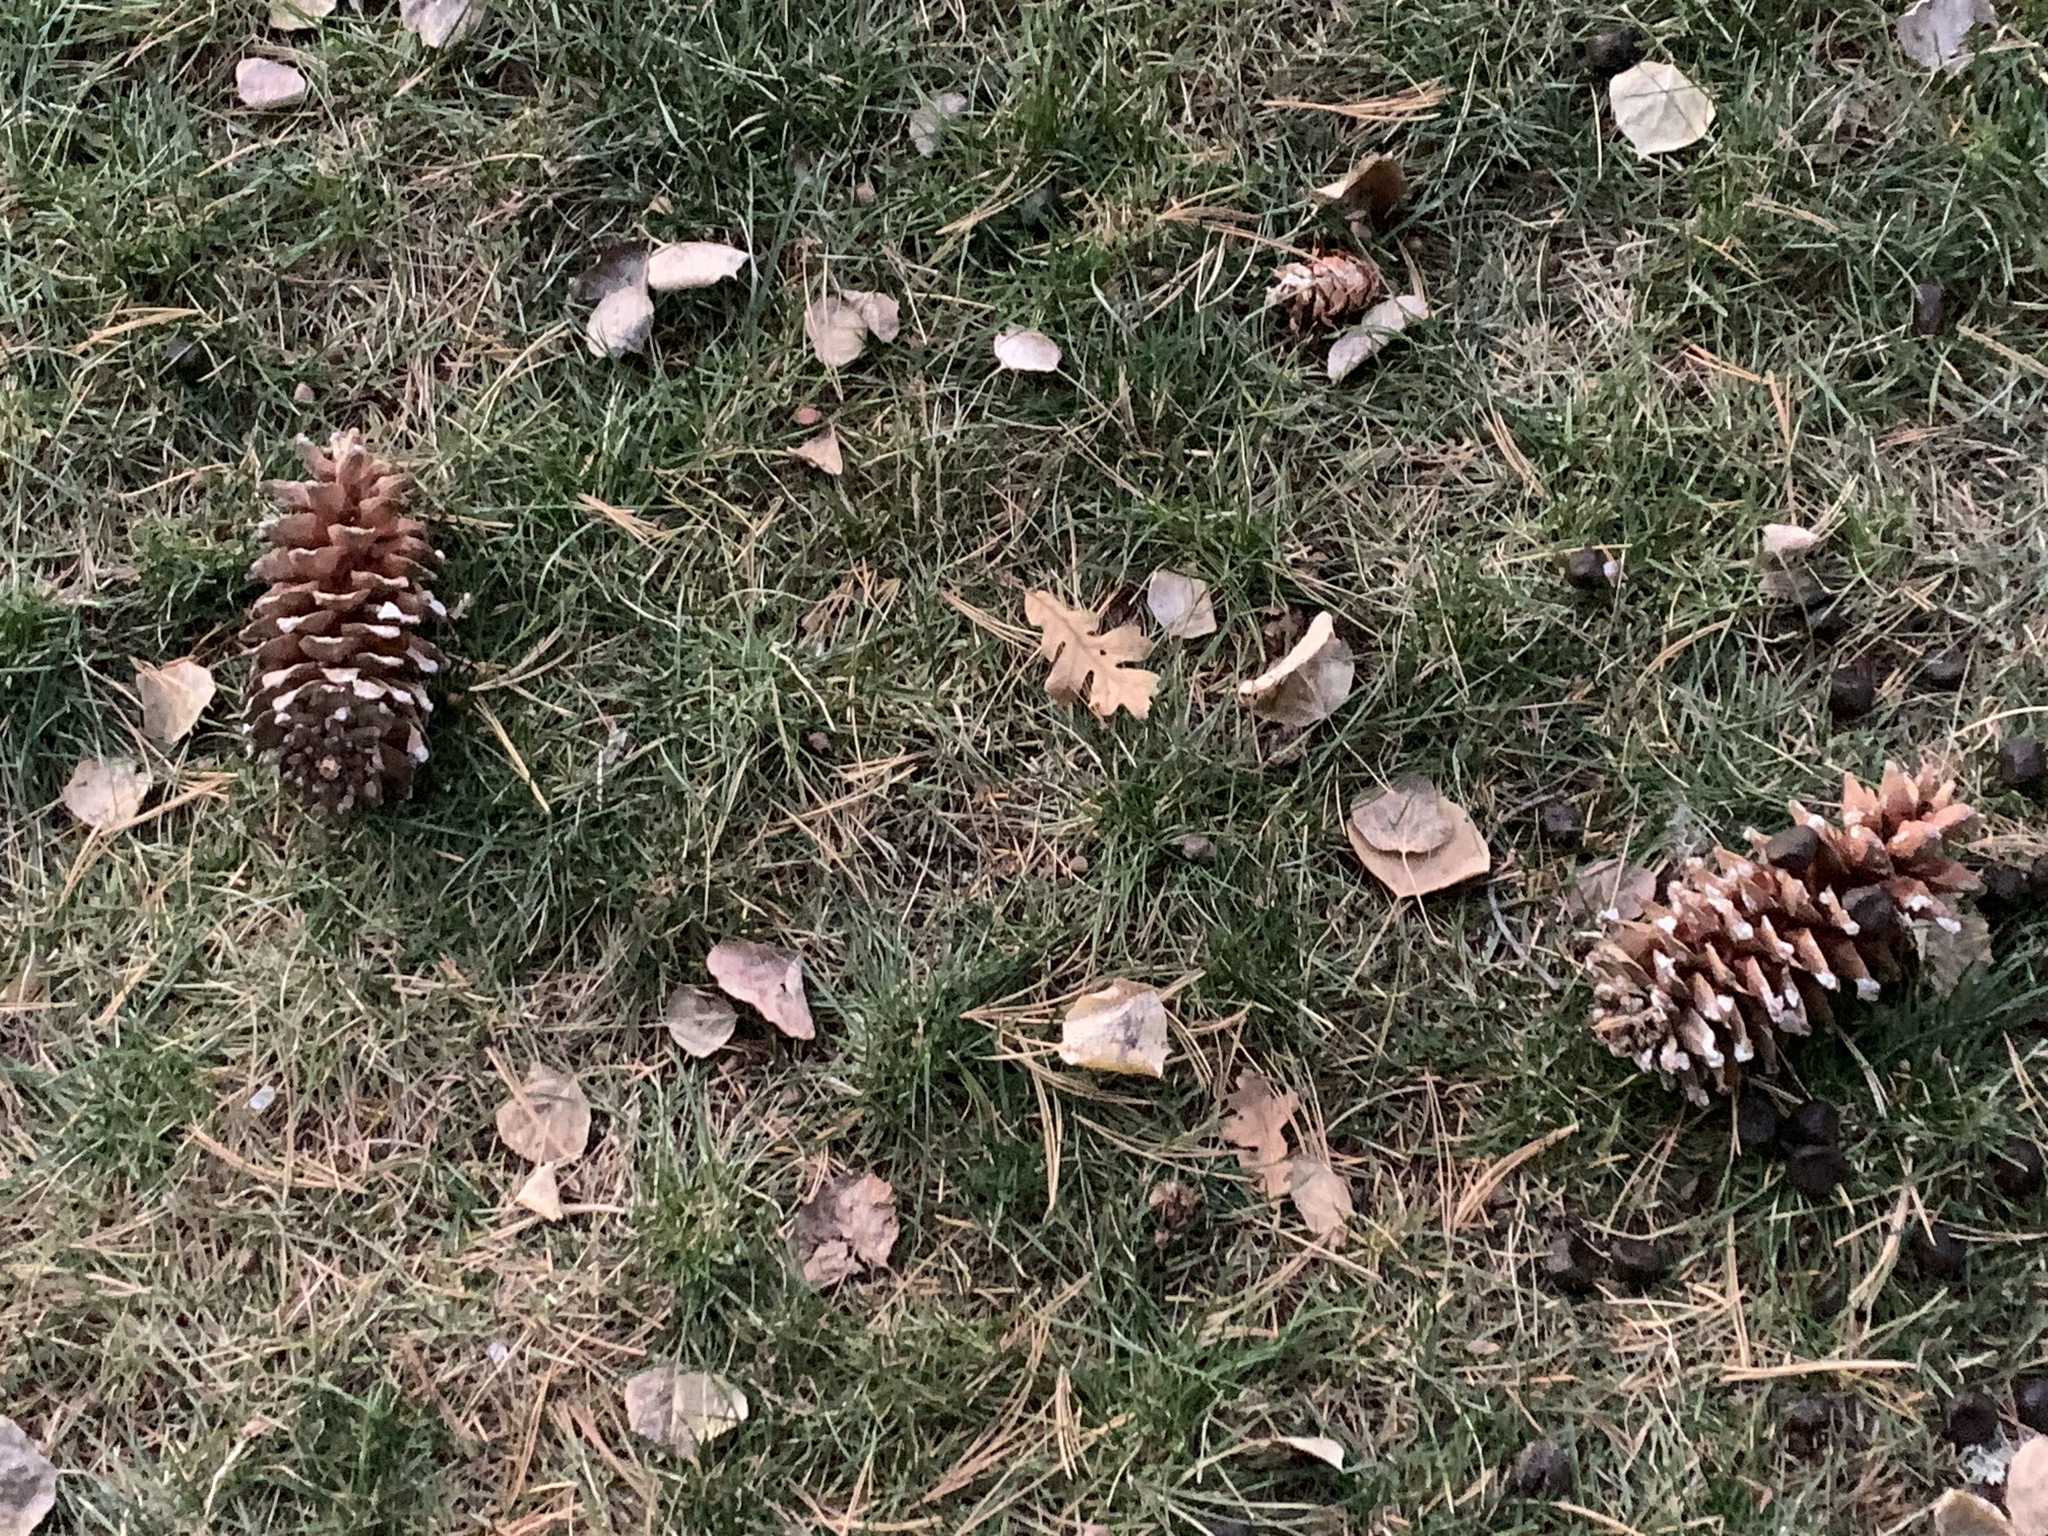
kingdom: Plantae
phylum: Tracheophyta
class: Pinopsida
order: Pinales
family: Pinaceae
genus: Pinus
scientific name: Pinus strobiformis
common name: Southwestern white pine
